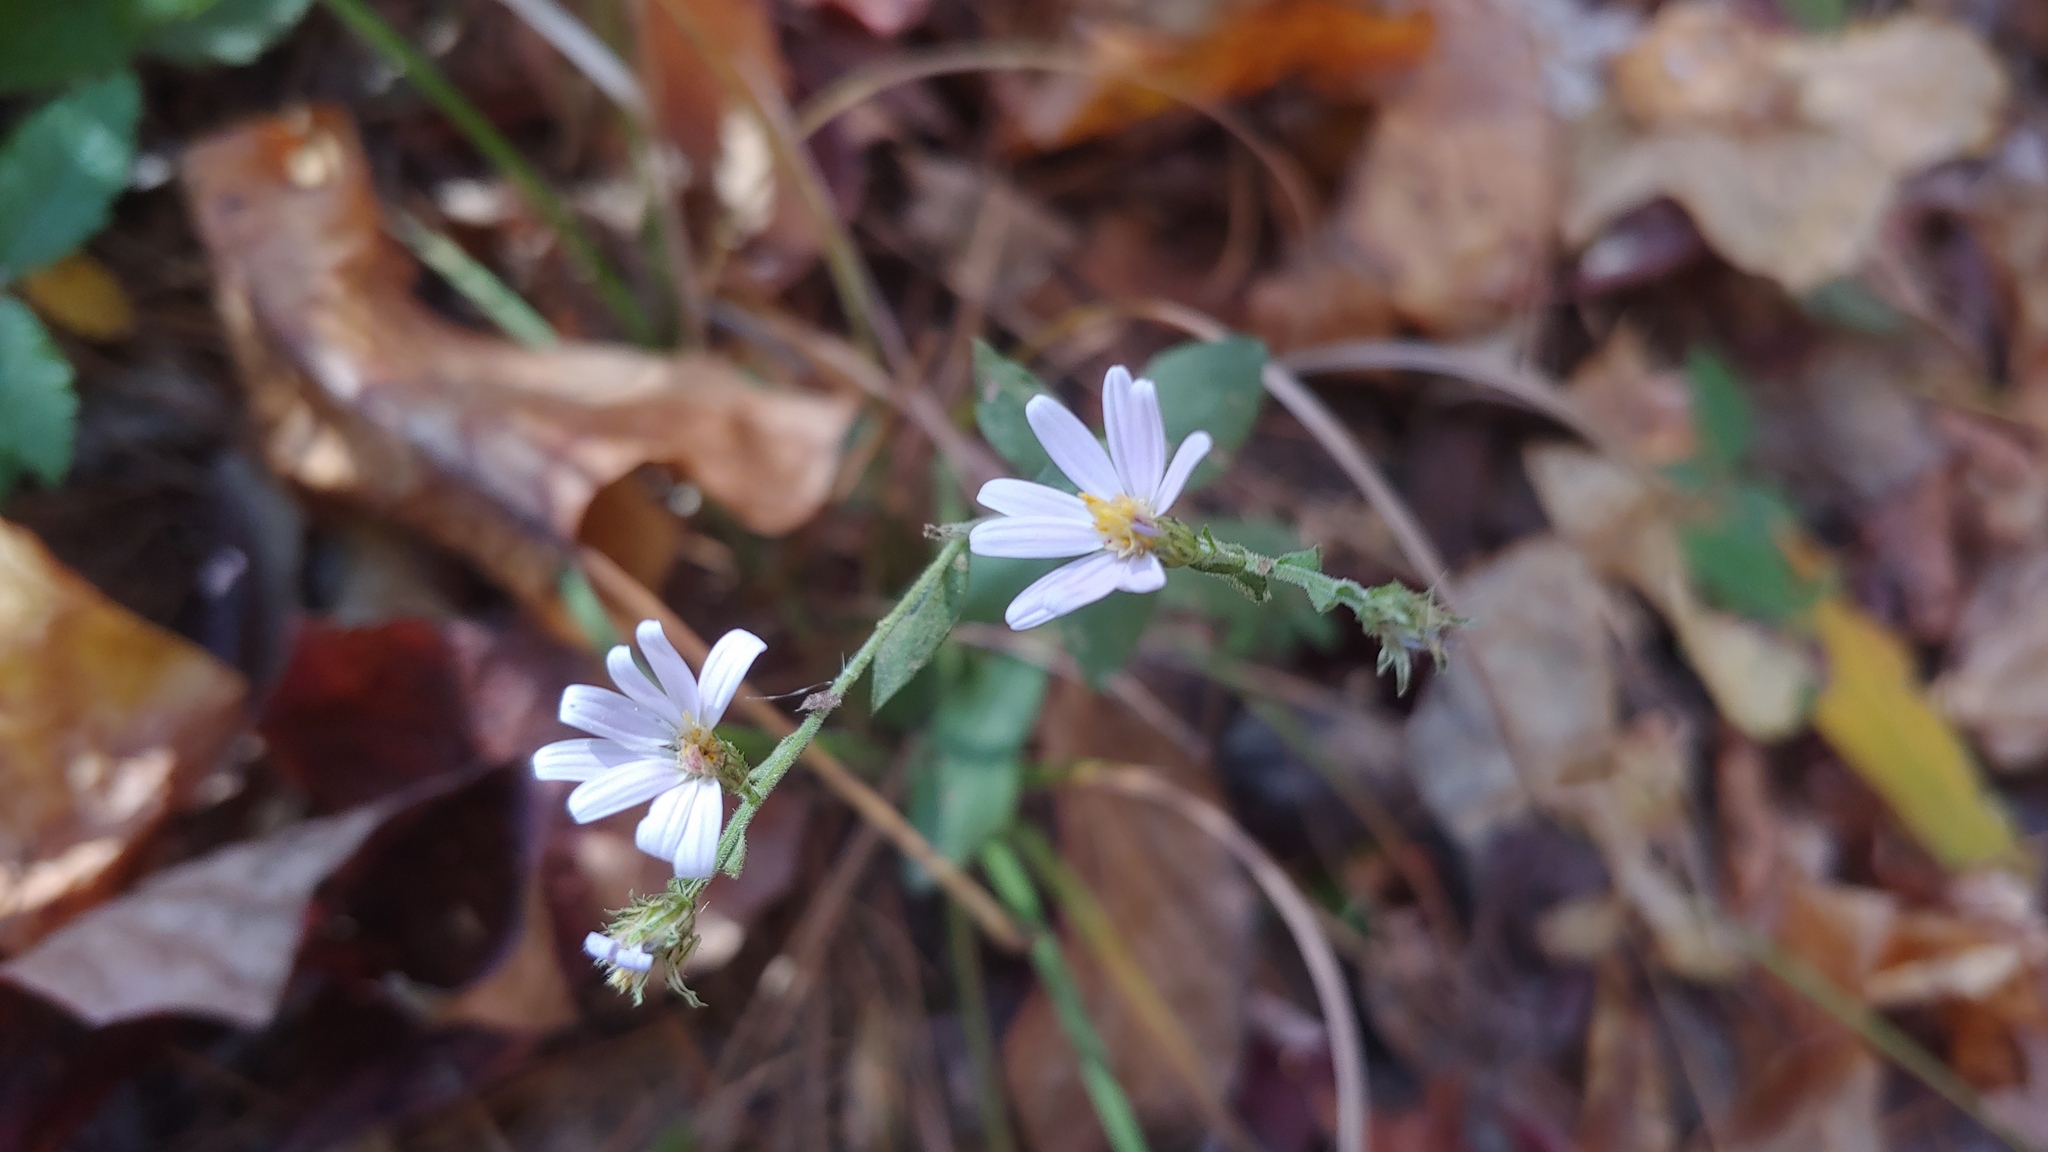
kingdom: Plantae
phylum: Tracheophyta
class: Magnoliopsida
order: Asterales
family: Asteraceae
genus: Symphyotrichum
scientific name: Symphyotrichum undulatum
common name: Clasping heart-leaf aster
